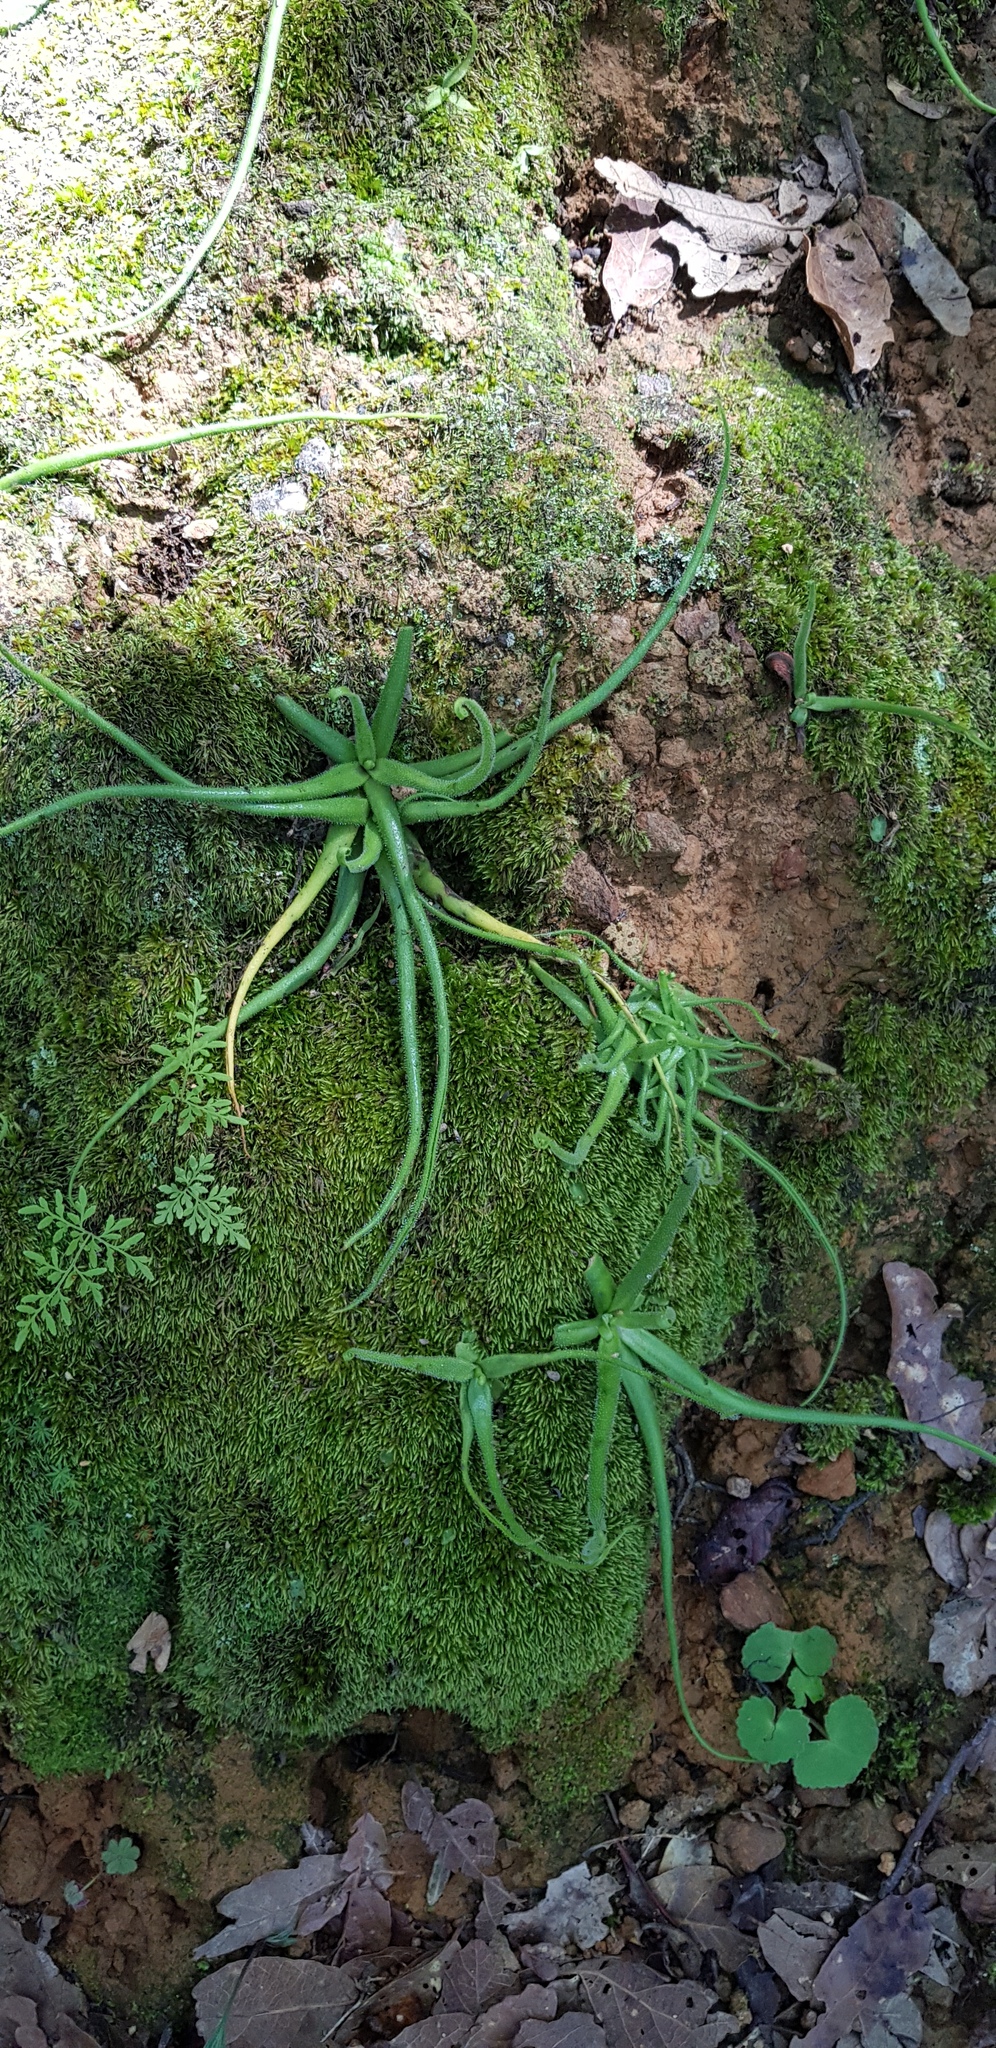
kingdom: Plantae
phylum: Tracheophyta
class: Magnoliopsida
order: Lamiales
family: Lentibulariaceae
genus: Pinguicula
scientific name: Pinguicula heterophylla
